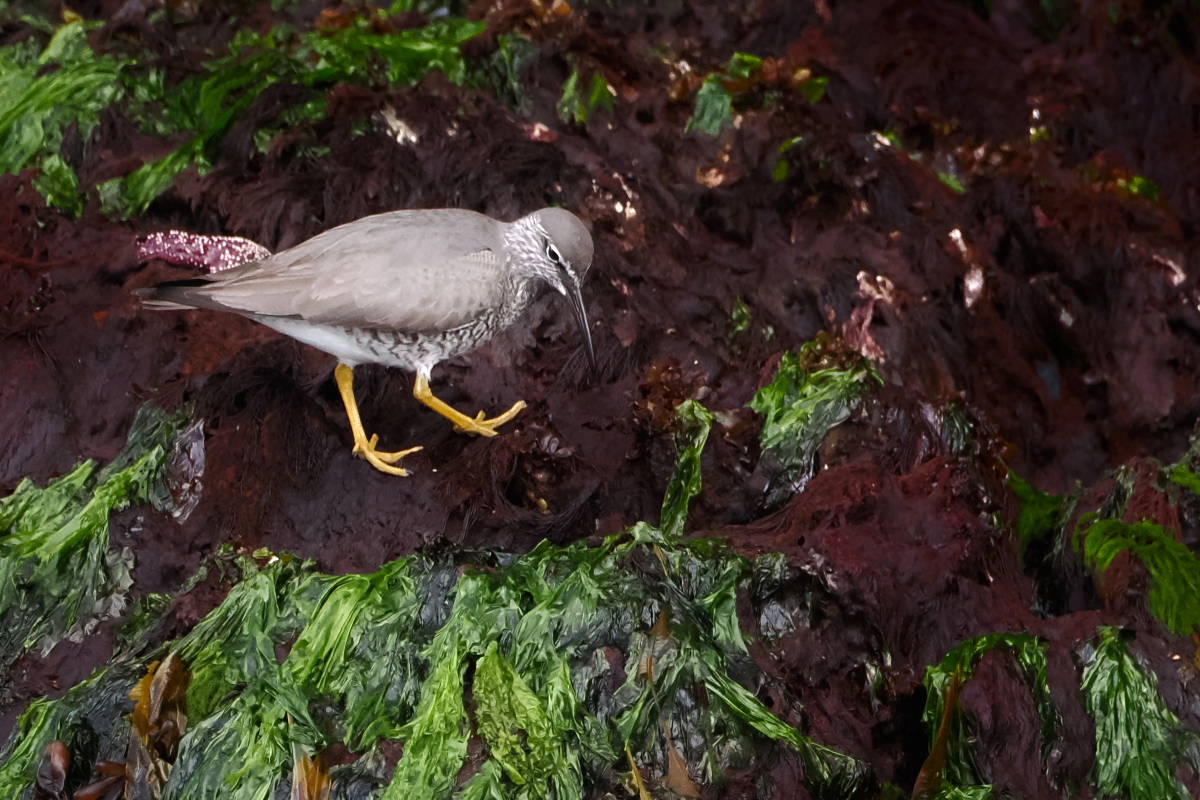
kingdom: Animalia
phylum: Chordata
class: Aves
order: Charadriiformes
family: Scolopacidae
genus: Tringa
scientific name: Tringa incana
